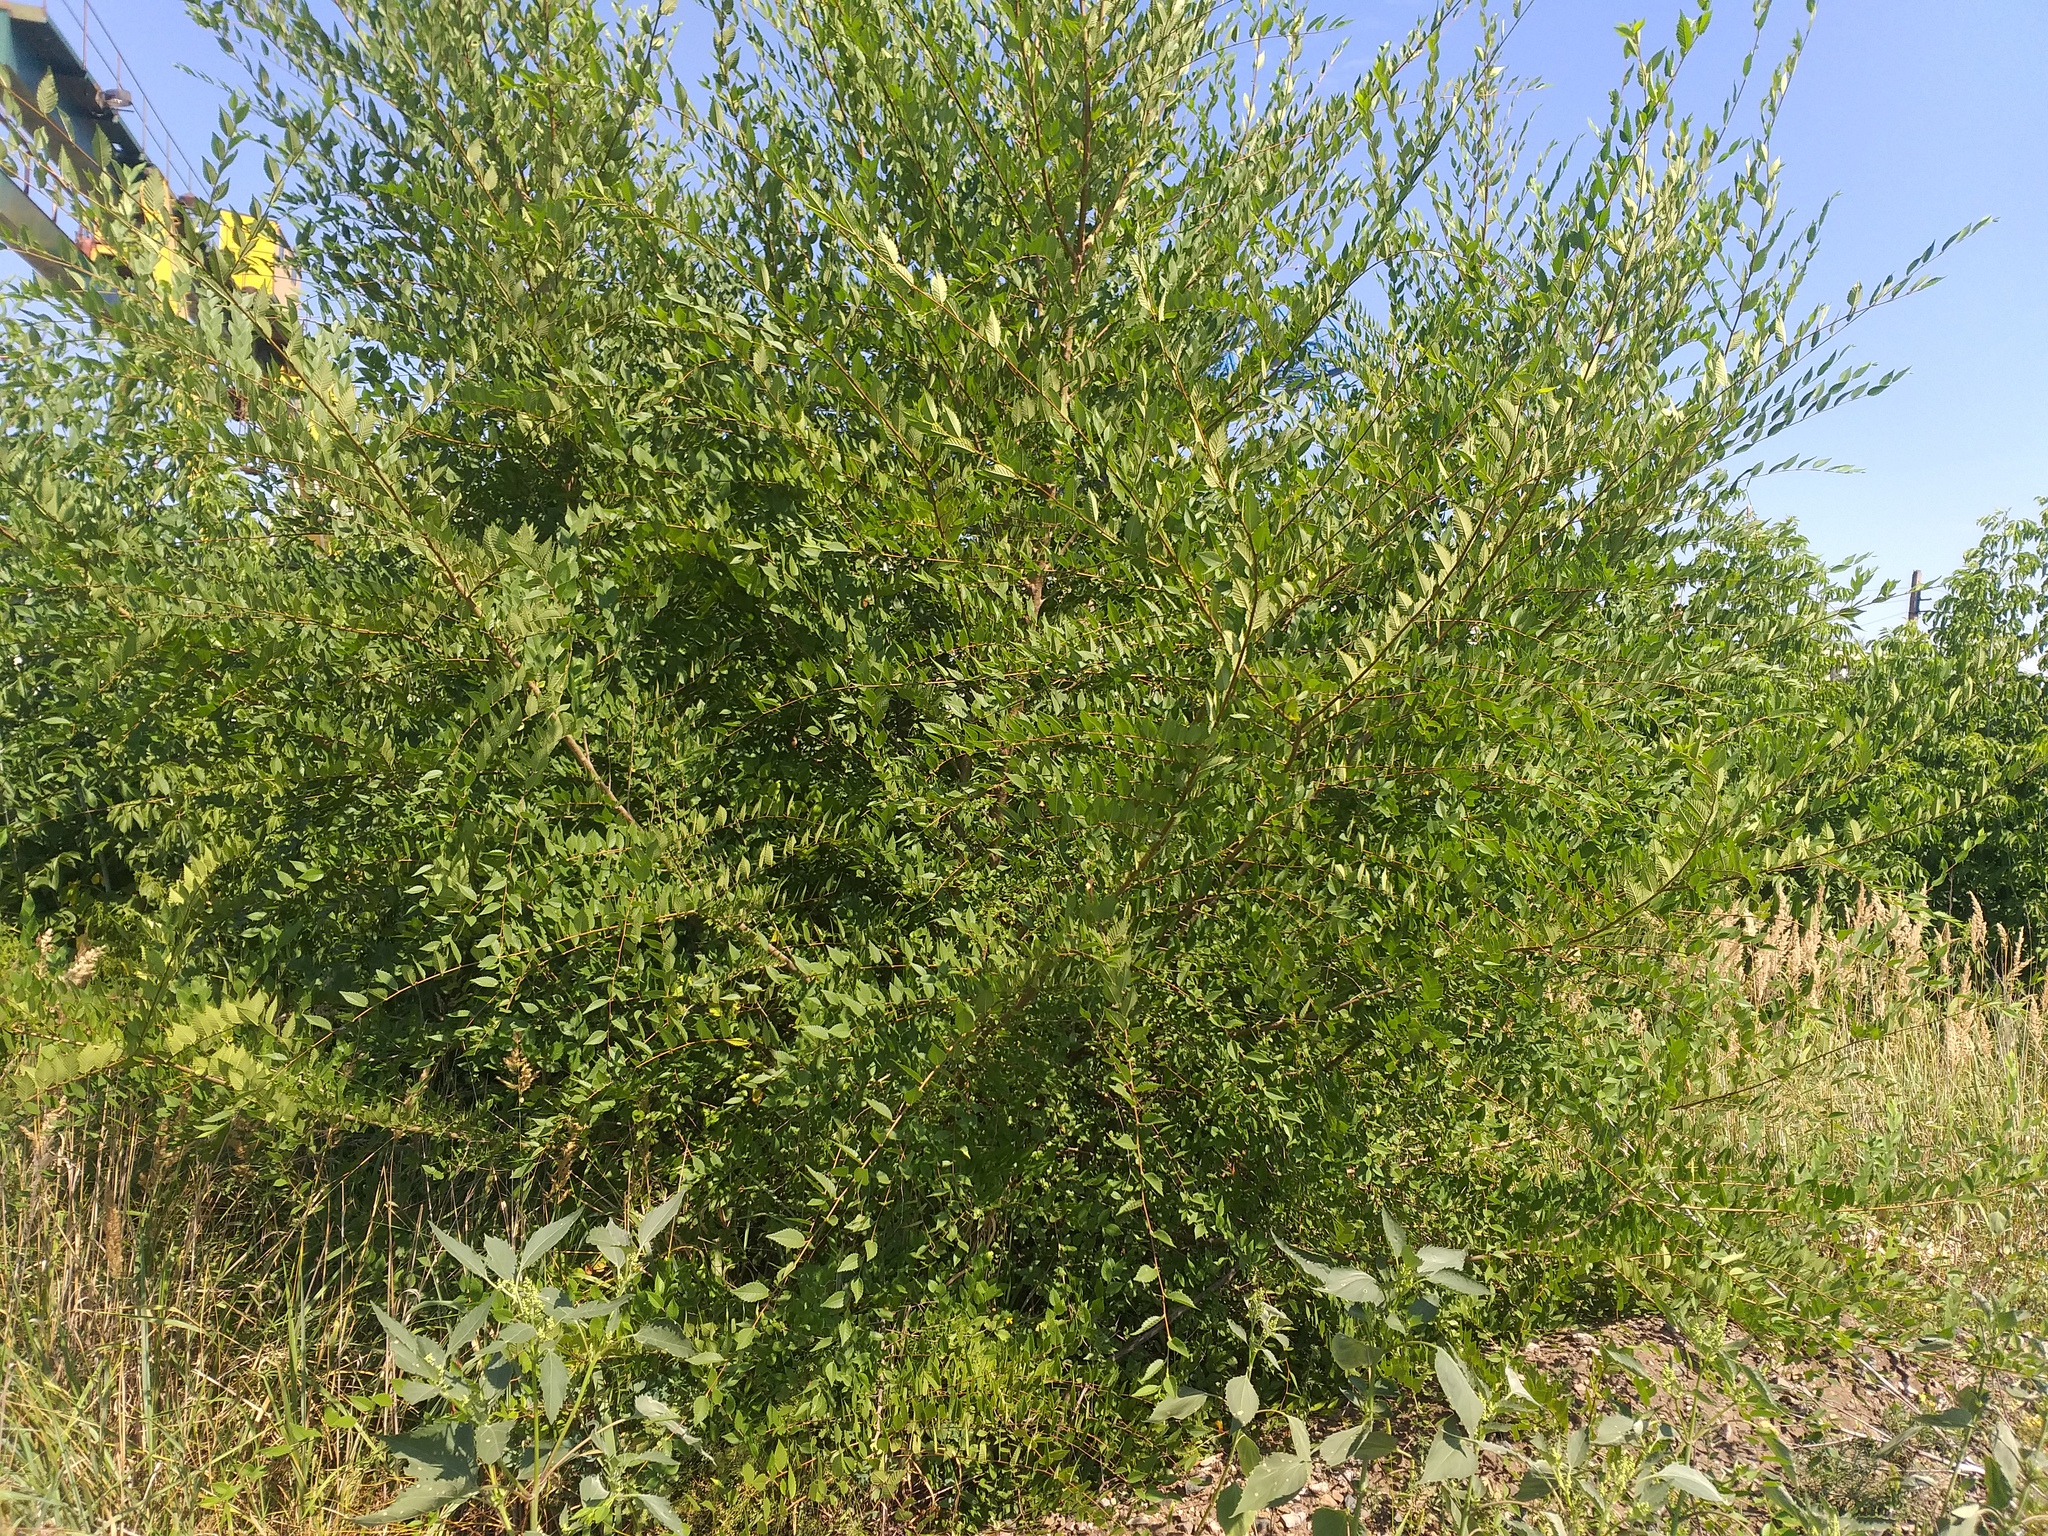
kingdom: Plantae
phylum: Tracheophyta
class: Magnoliopsida
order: Rosales
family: Ulmaceae
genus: Ulmus
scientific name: Ulmus pumila
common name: Siberian elm
